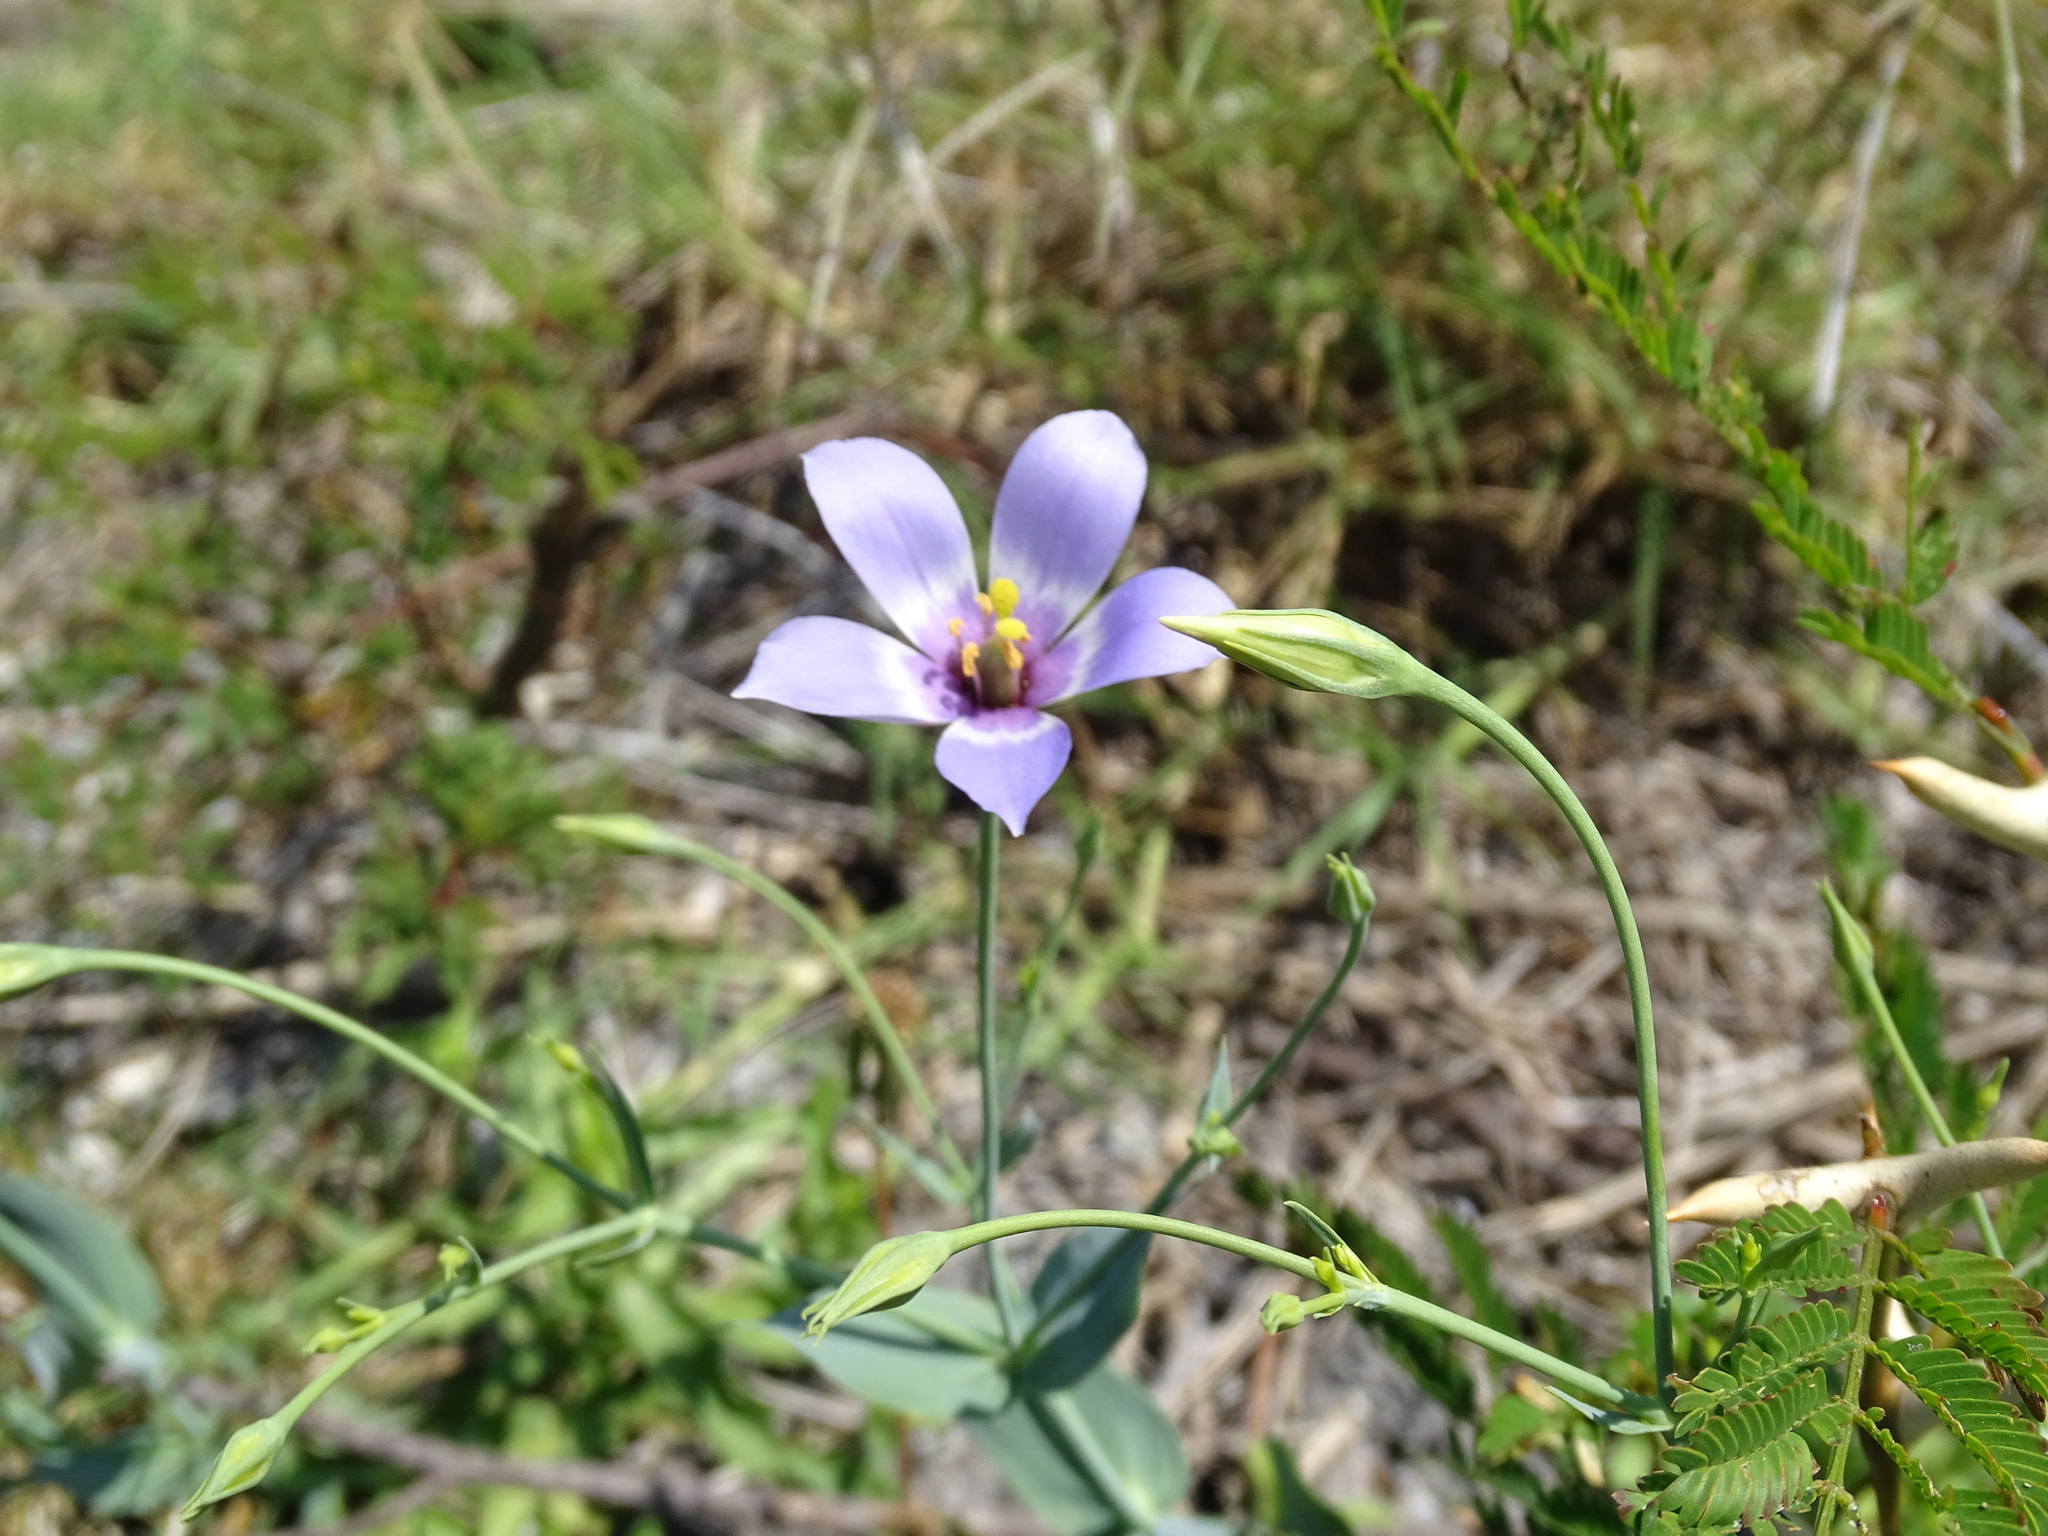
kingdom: Plantae
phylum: Tracheophyta
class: Magnoliopsida
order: Gentianales
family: Gentianaceae
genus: Eustoma
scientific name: Eustoma exaltatum
